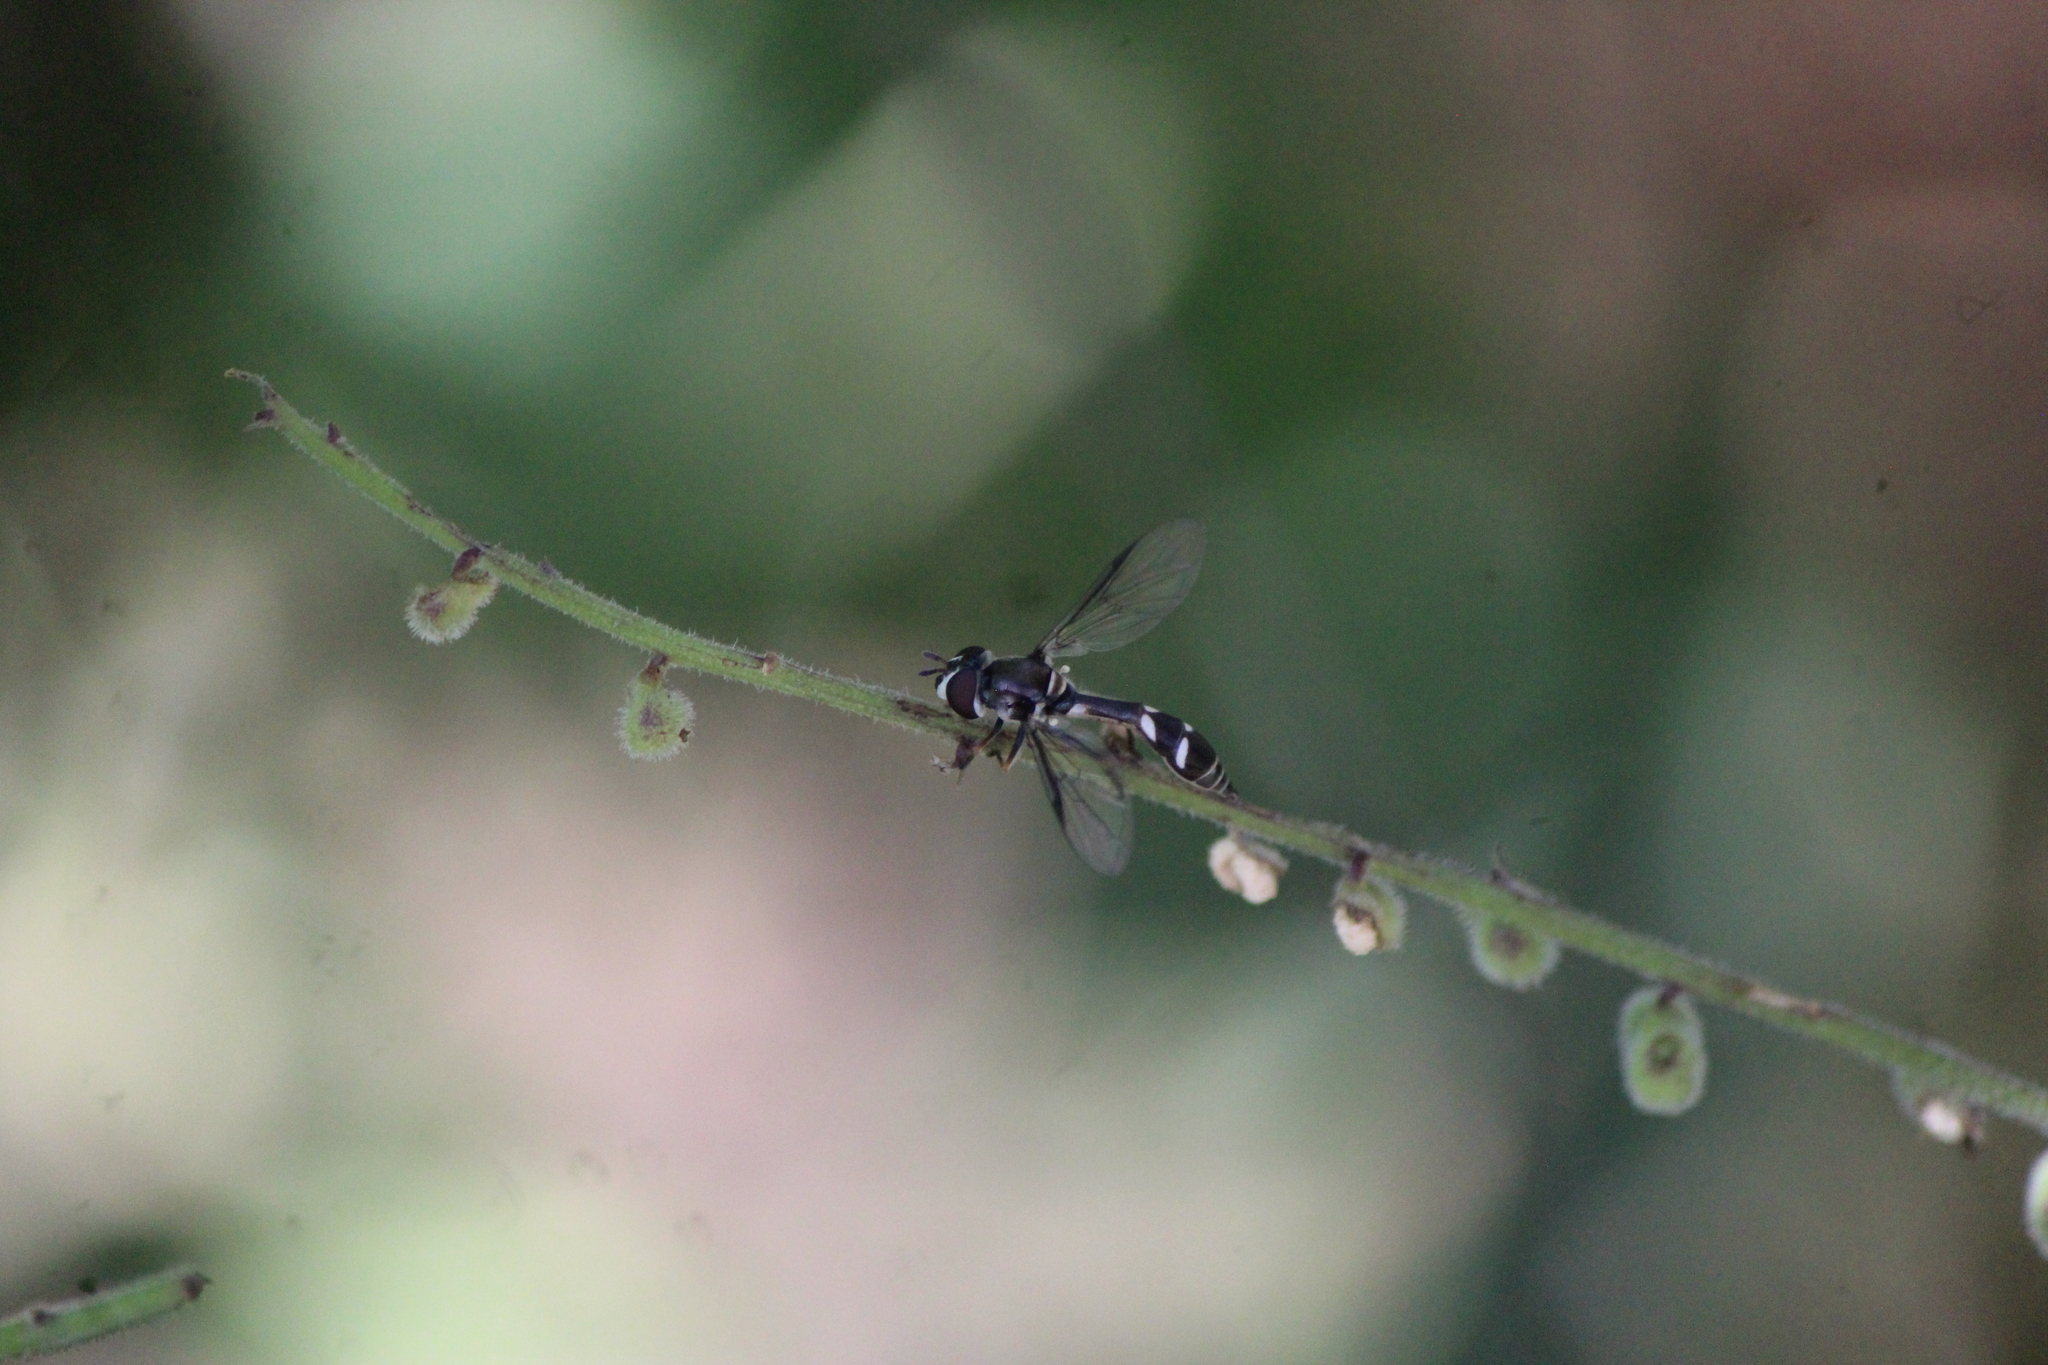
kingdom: Animalia
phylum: Arthropoda
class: Insecta
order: Diptera
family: Syrphidae
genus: Dioprosopa
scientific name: Dioprosopa clavatus
